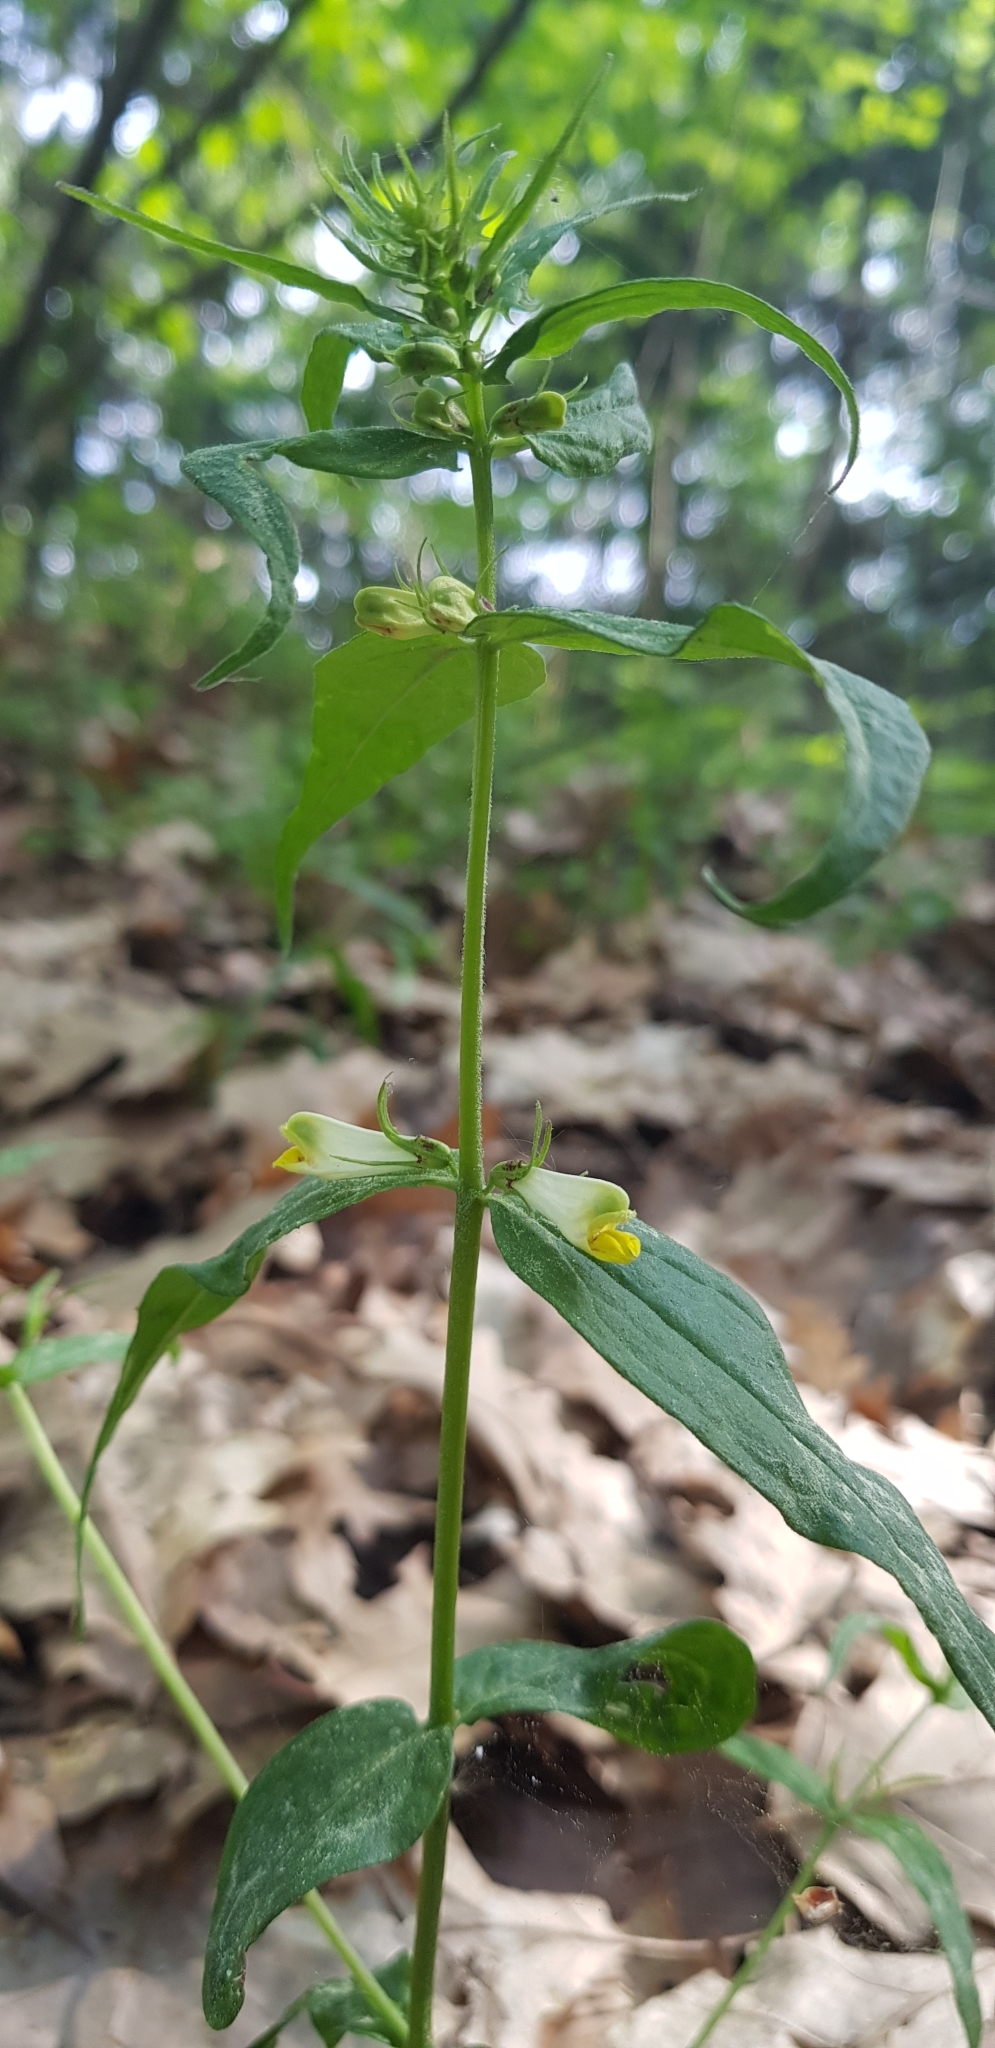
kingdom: Plantae
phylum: Tracheophyta
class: Magnoliopsida
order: Lamiales
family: Orobanchaceae
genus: Melampyrum
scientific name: Melampyrum pratense
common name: Common cow-wheat
